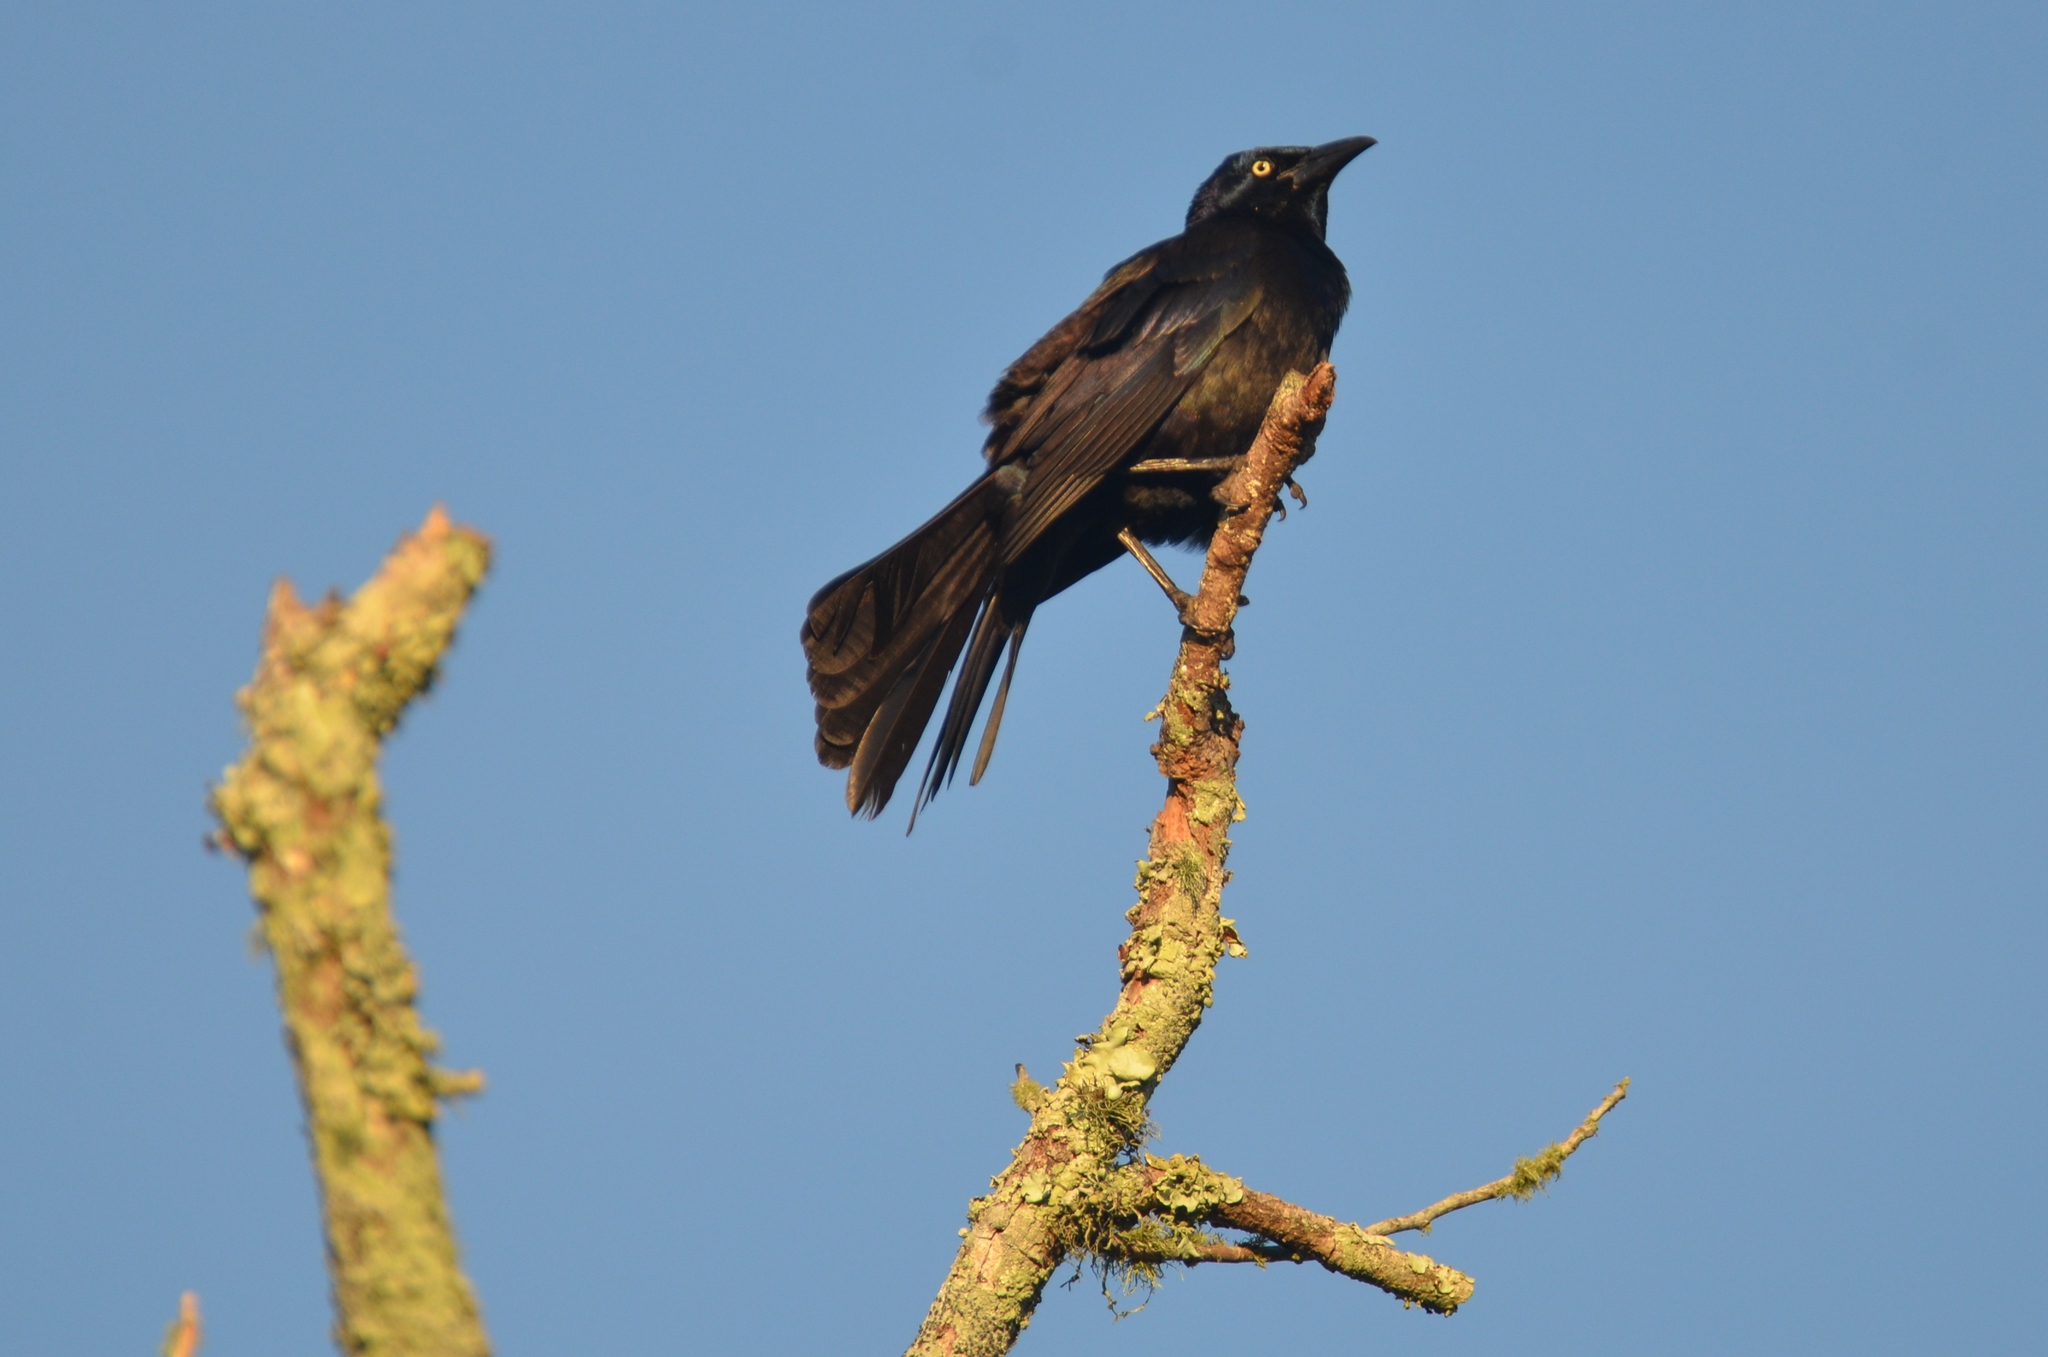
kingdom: Animalia
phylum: Chordata
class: Aves
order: Passeriformes
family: Icteridae
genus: Quiscalus
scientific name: Quiscalus quiscula
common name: Common grackle
